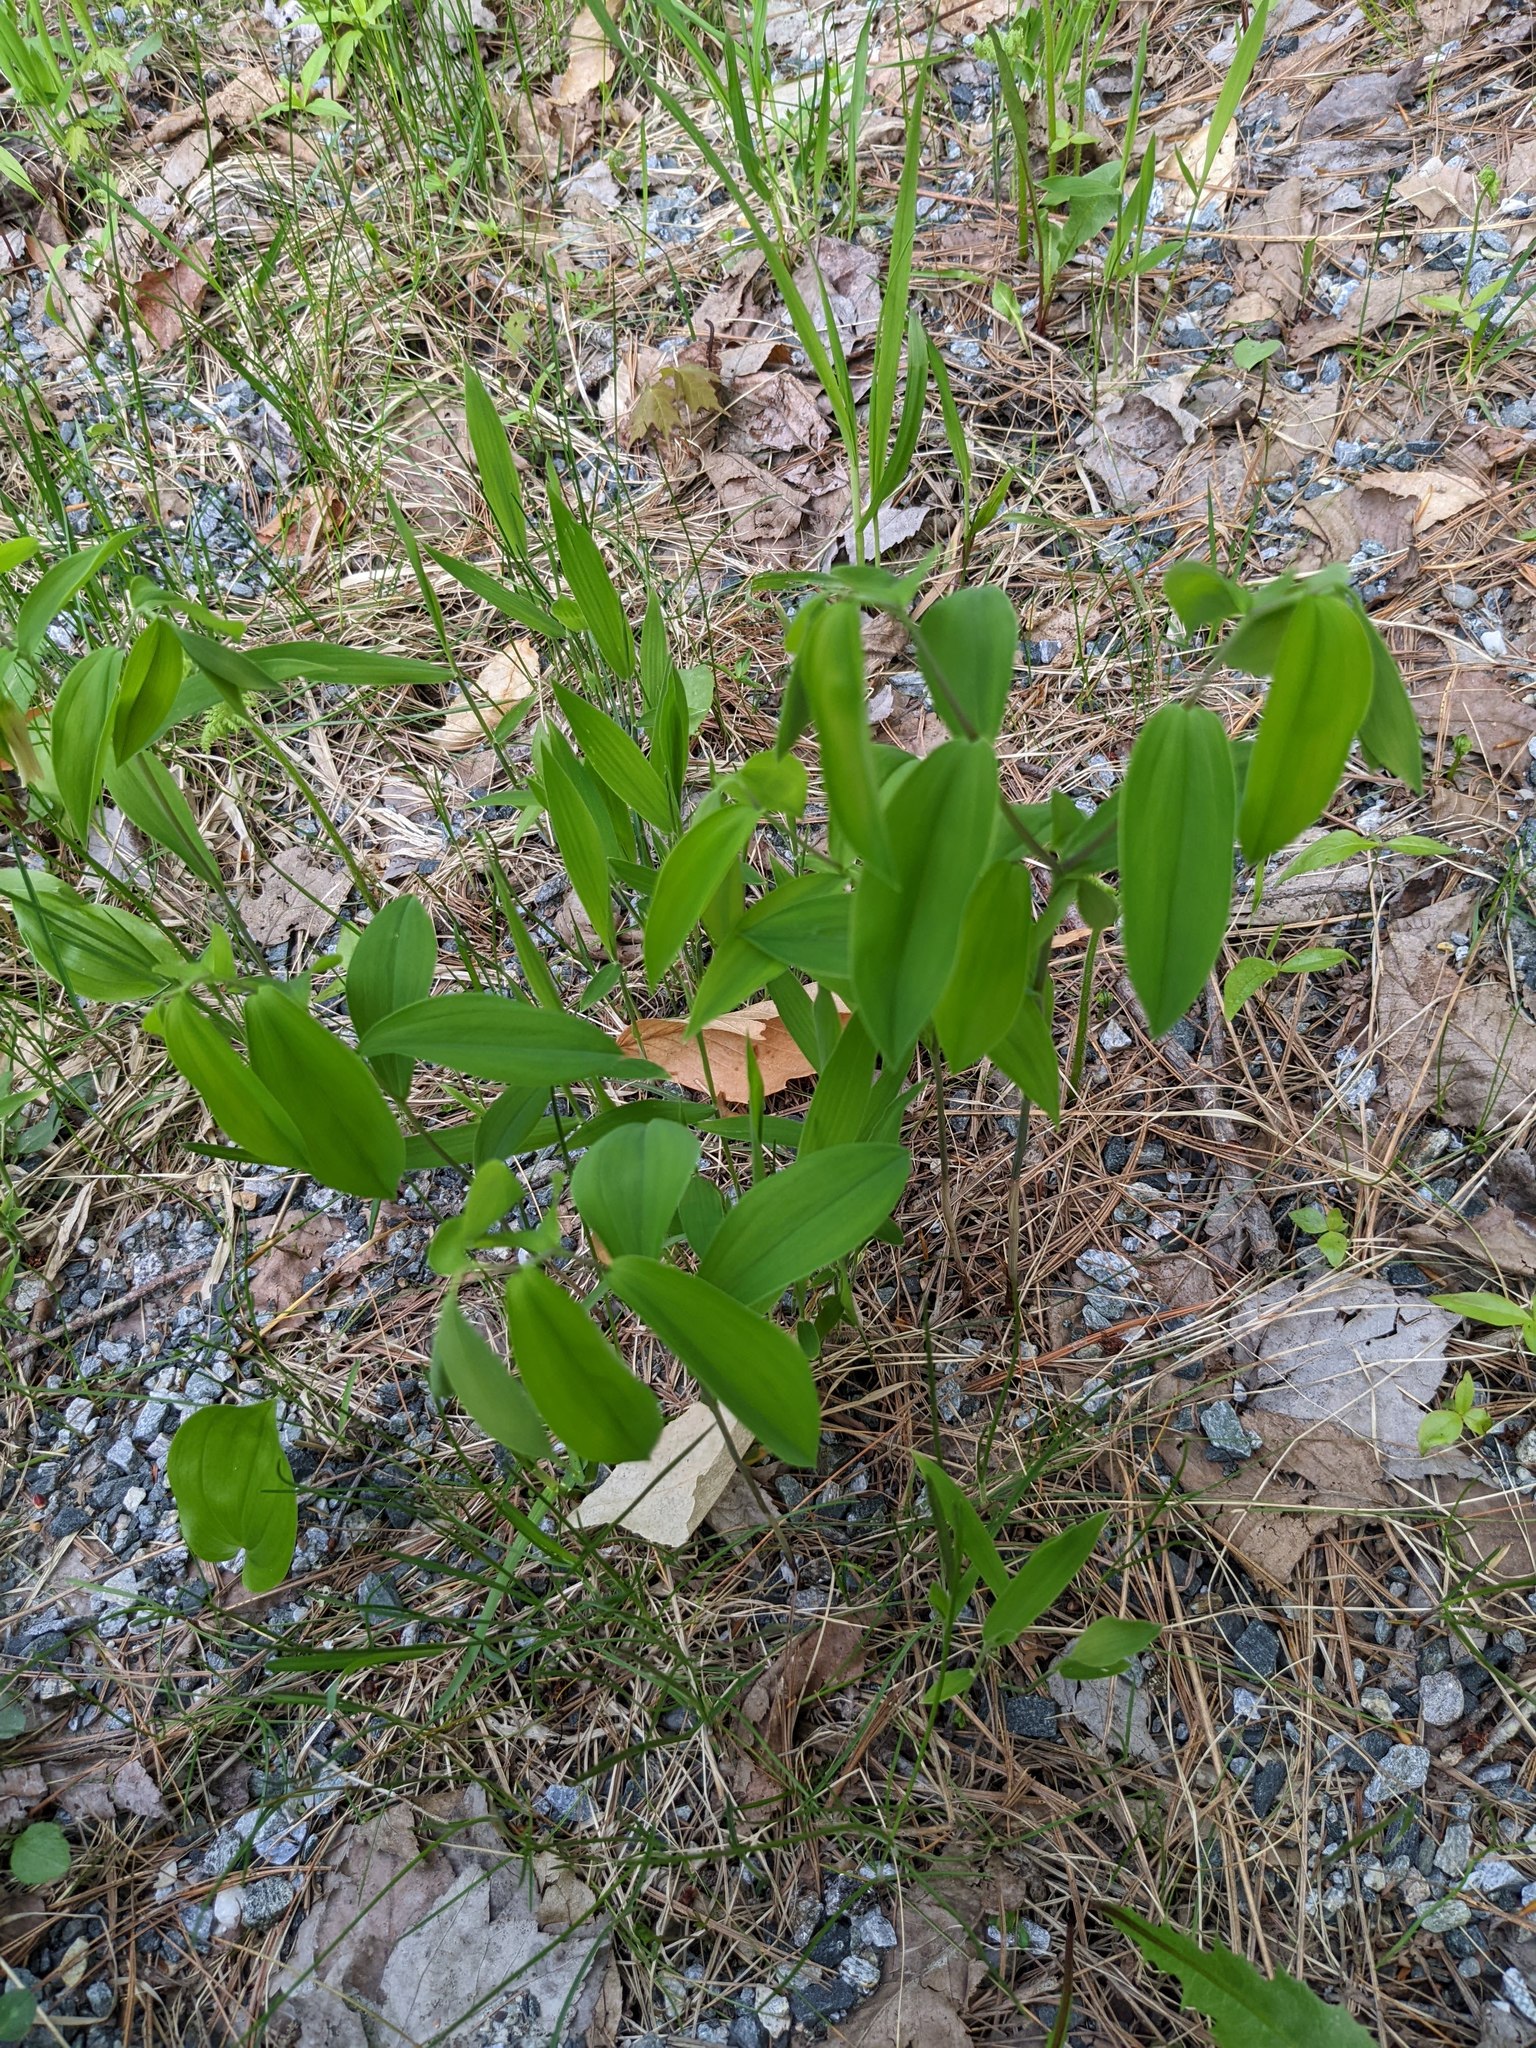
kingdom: Plantae
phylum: Tracheophyta
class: Liliopsida
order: Liliales
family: Colchicaceae
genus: Uvularia
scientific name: Uvularia sessilifolia
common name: Straw-lily
